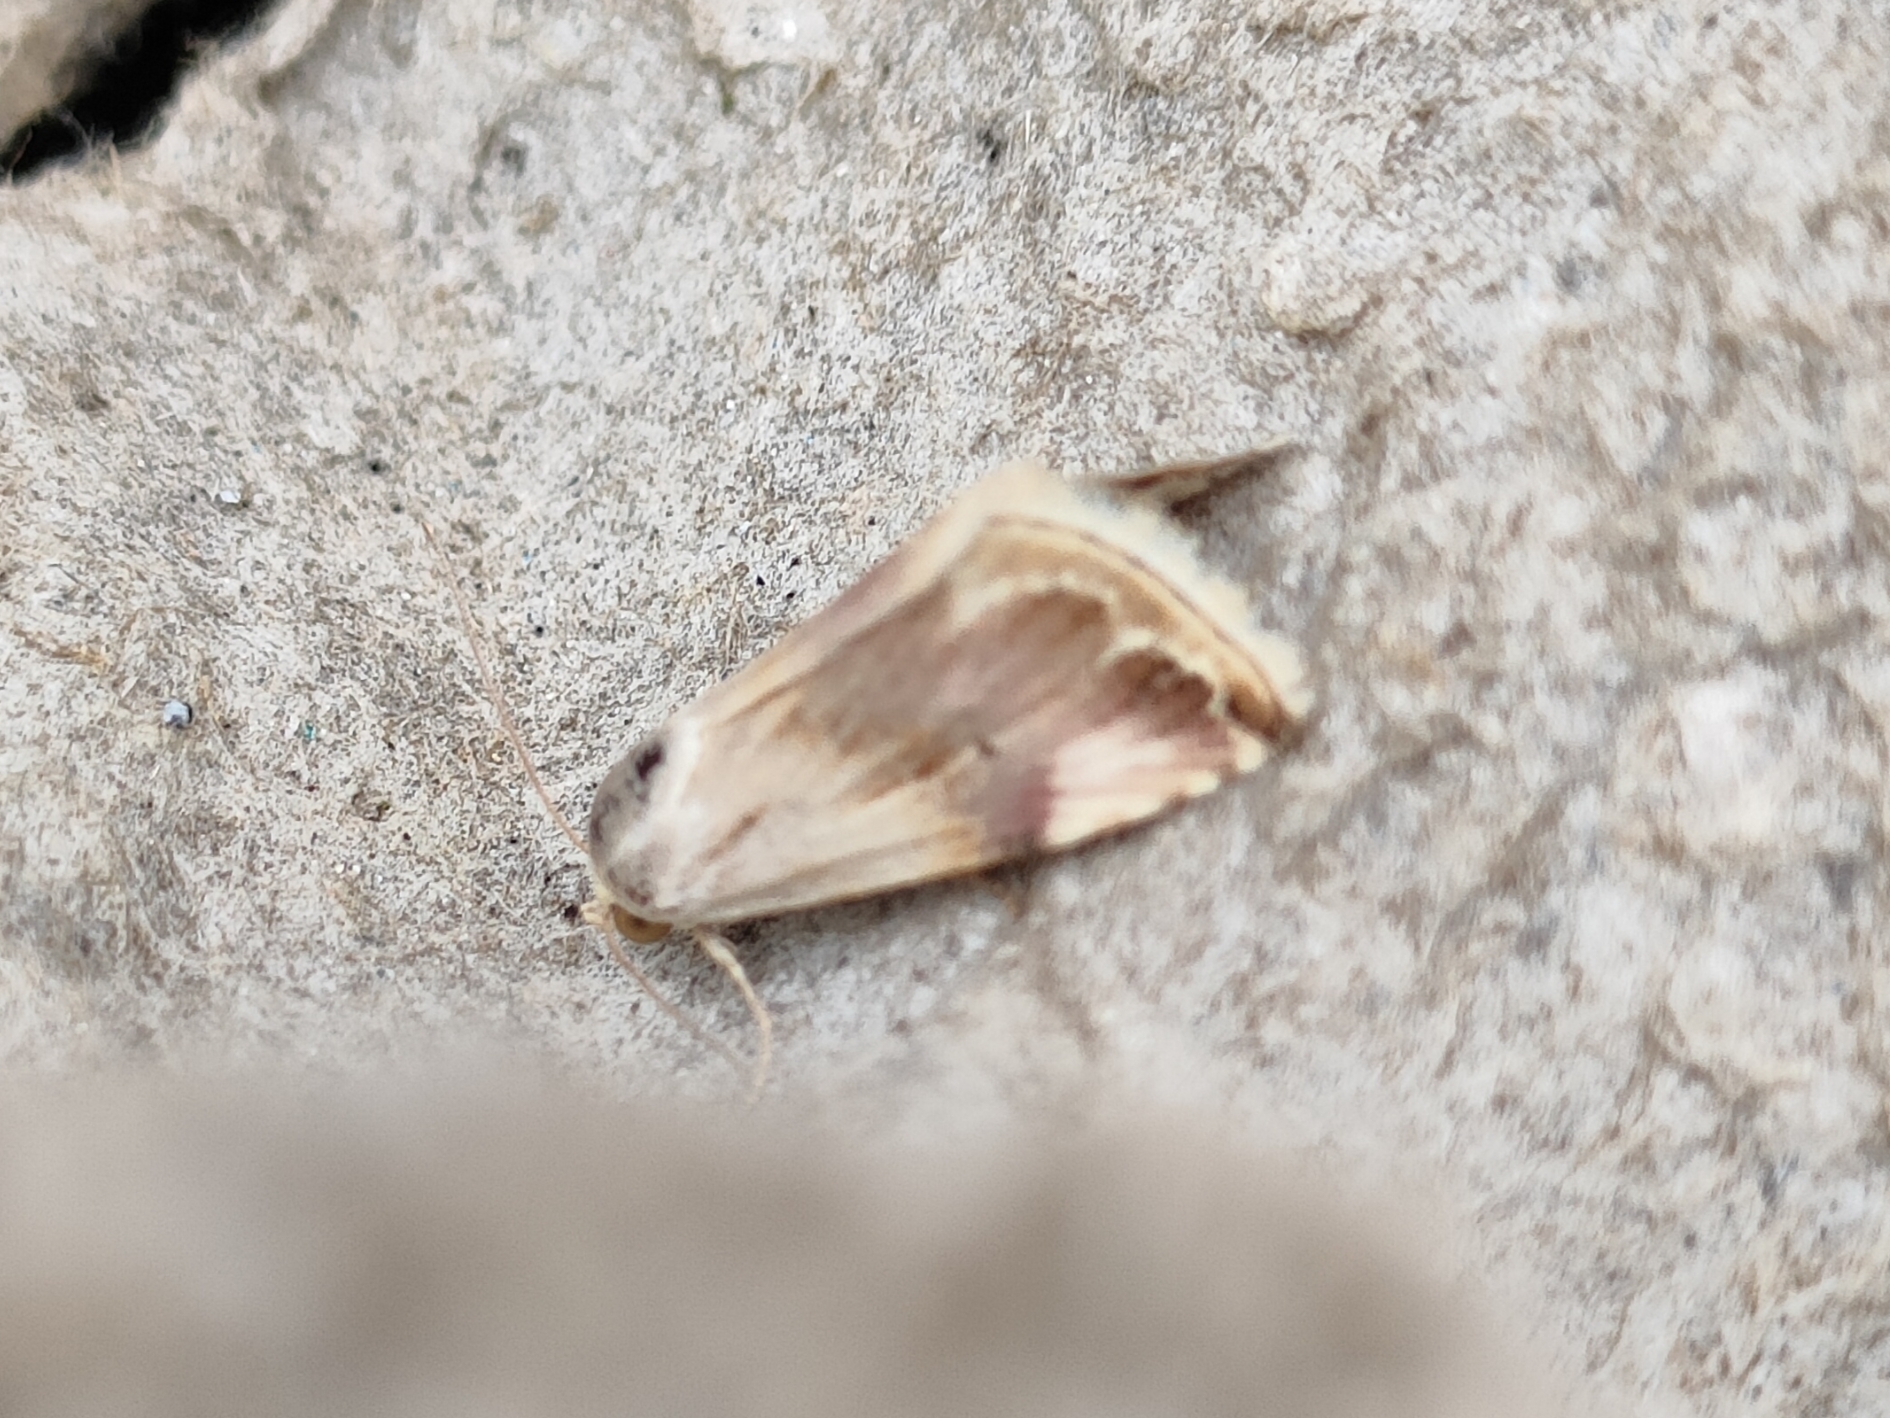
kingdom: Animalia
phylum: Arthropoda
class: Insecta
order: Lepidoptera
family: Noctuidae
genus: Eublemma
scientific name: Eublemma ostrina
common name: Purple marbled
